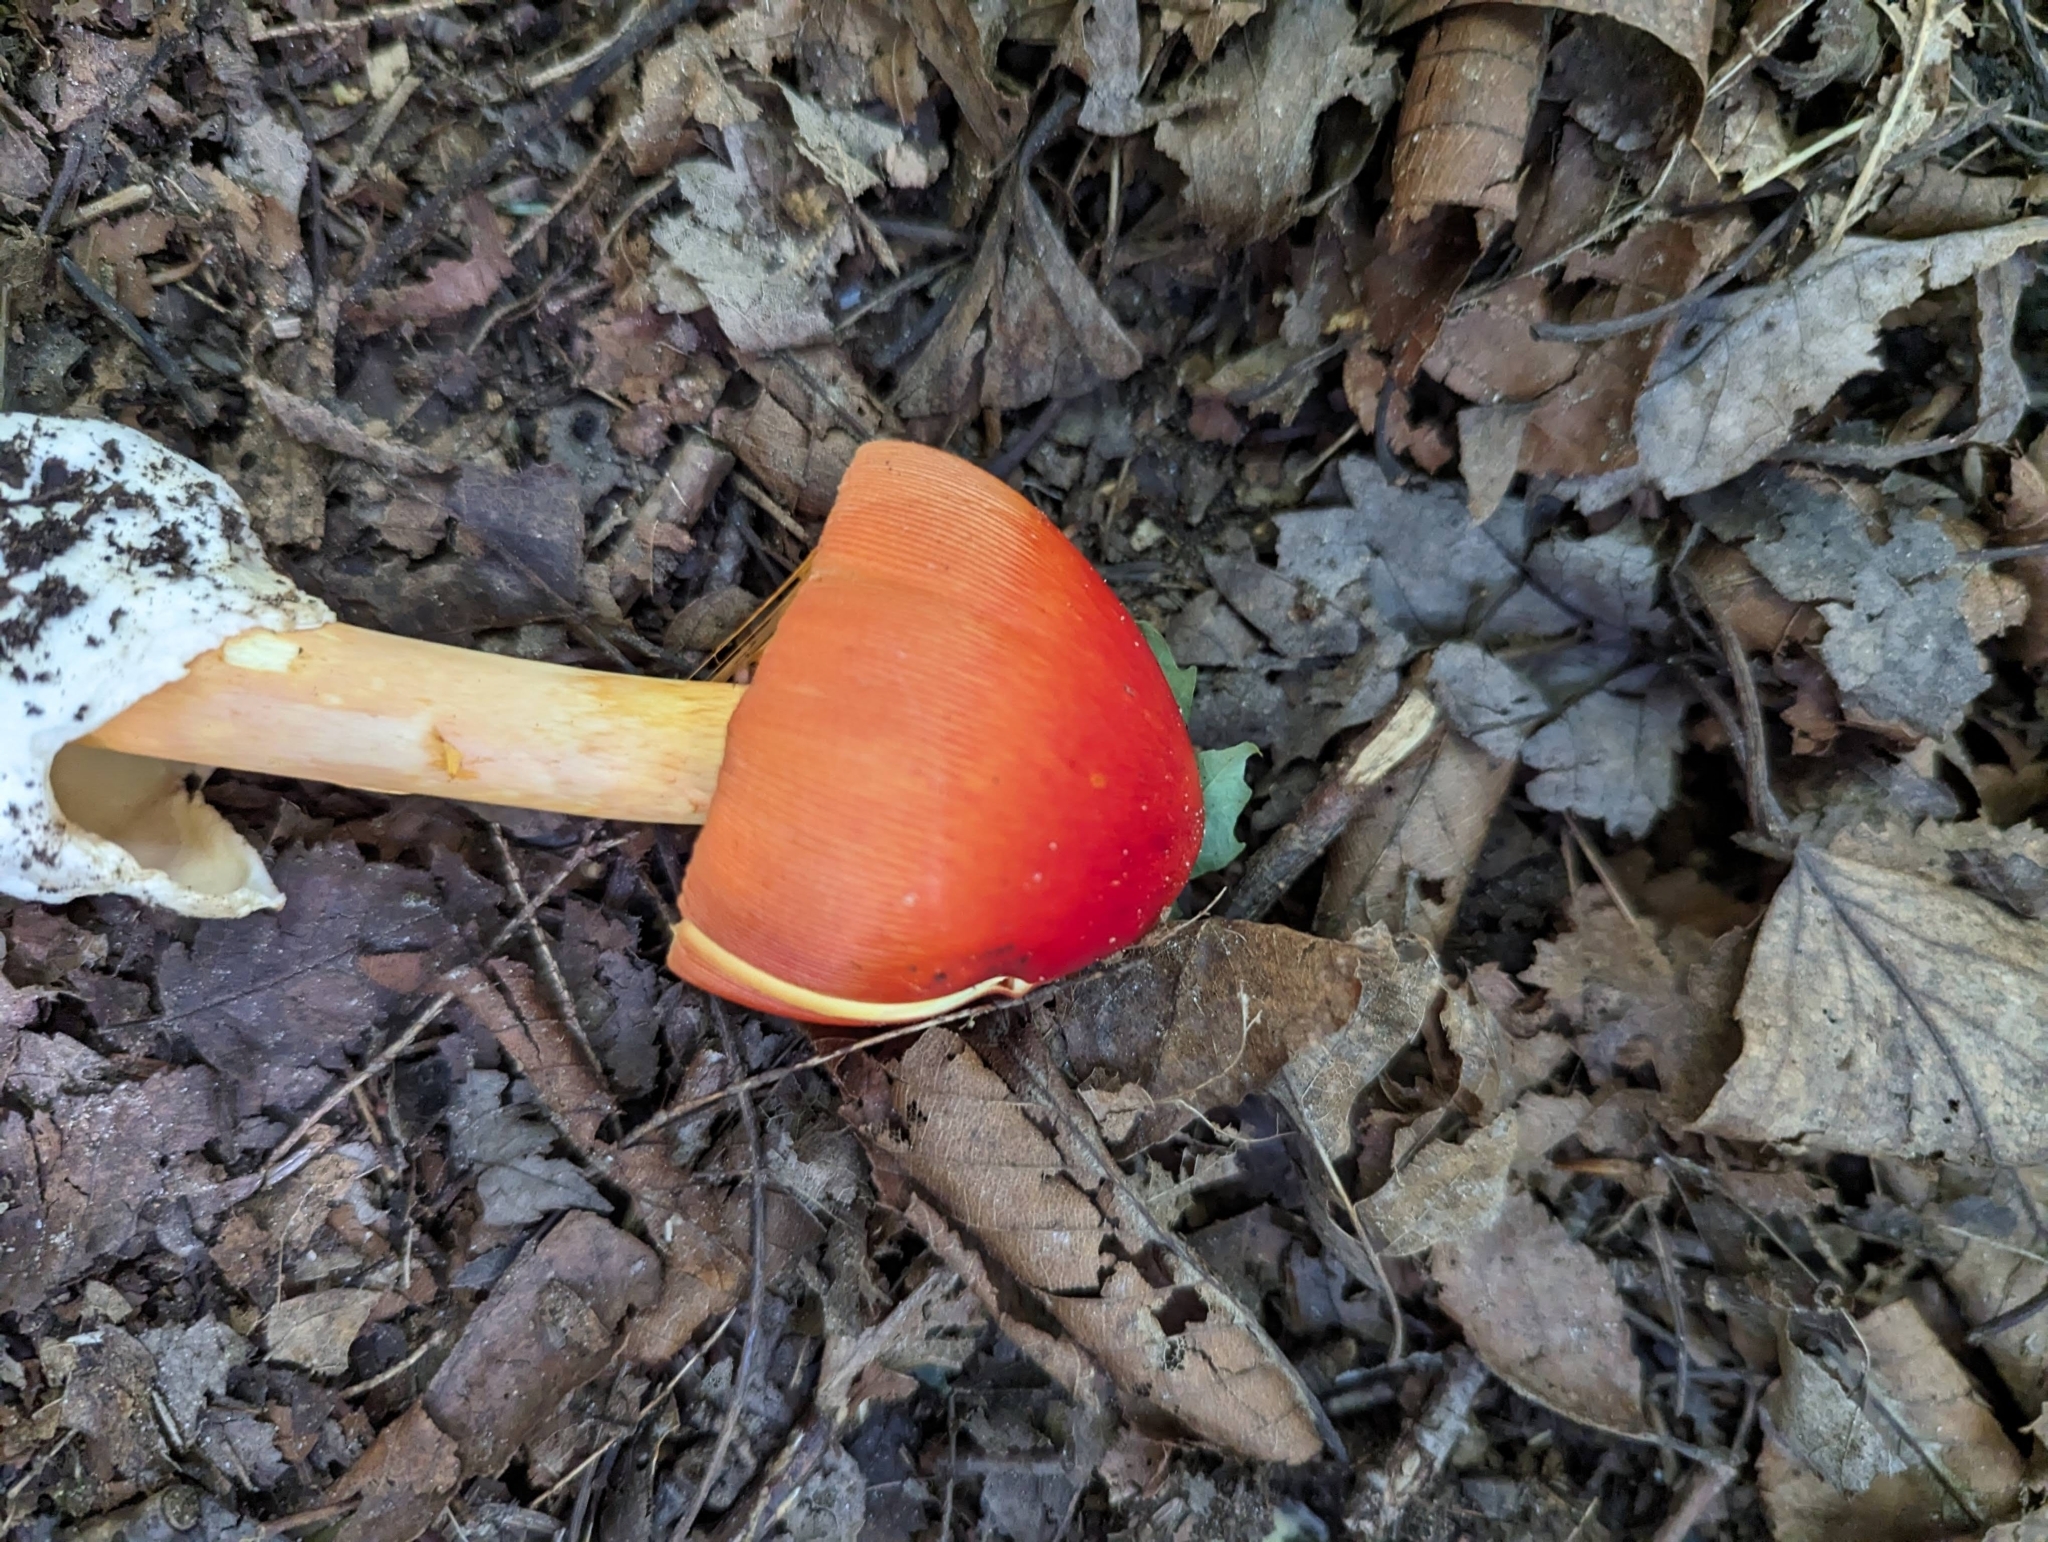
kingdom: Fungi
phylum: Basidiomycota
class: Agaricomycetes
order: Agaricales
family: Amanitaceae
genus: Amanita
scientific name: Amanita jacksonii
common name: Jackson's slender caesar
